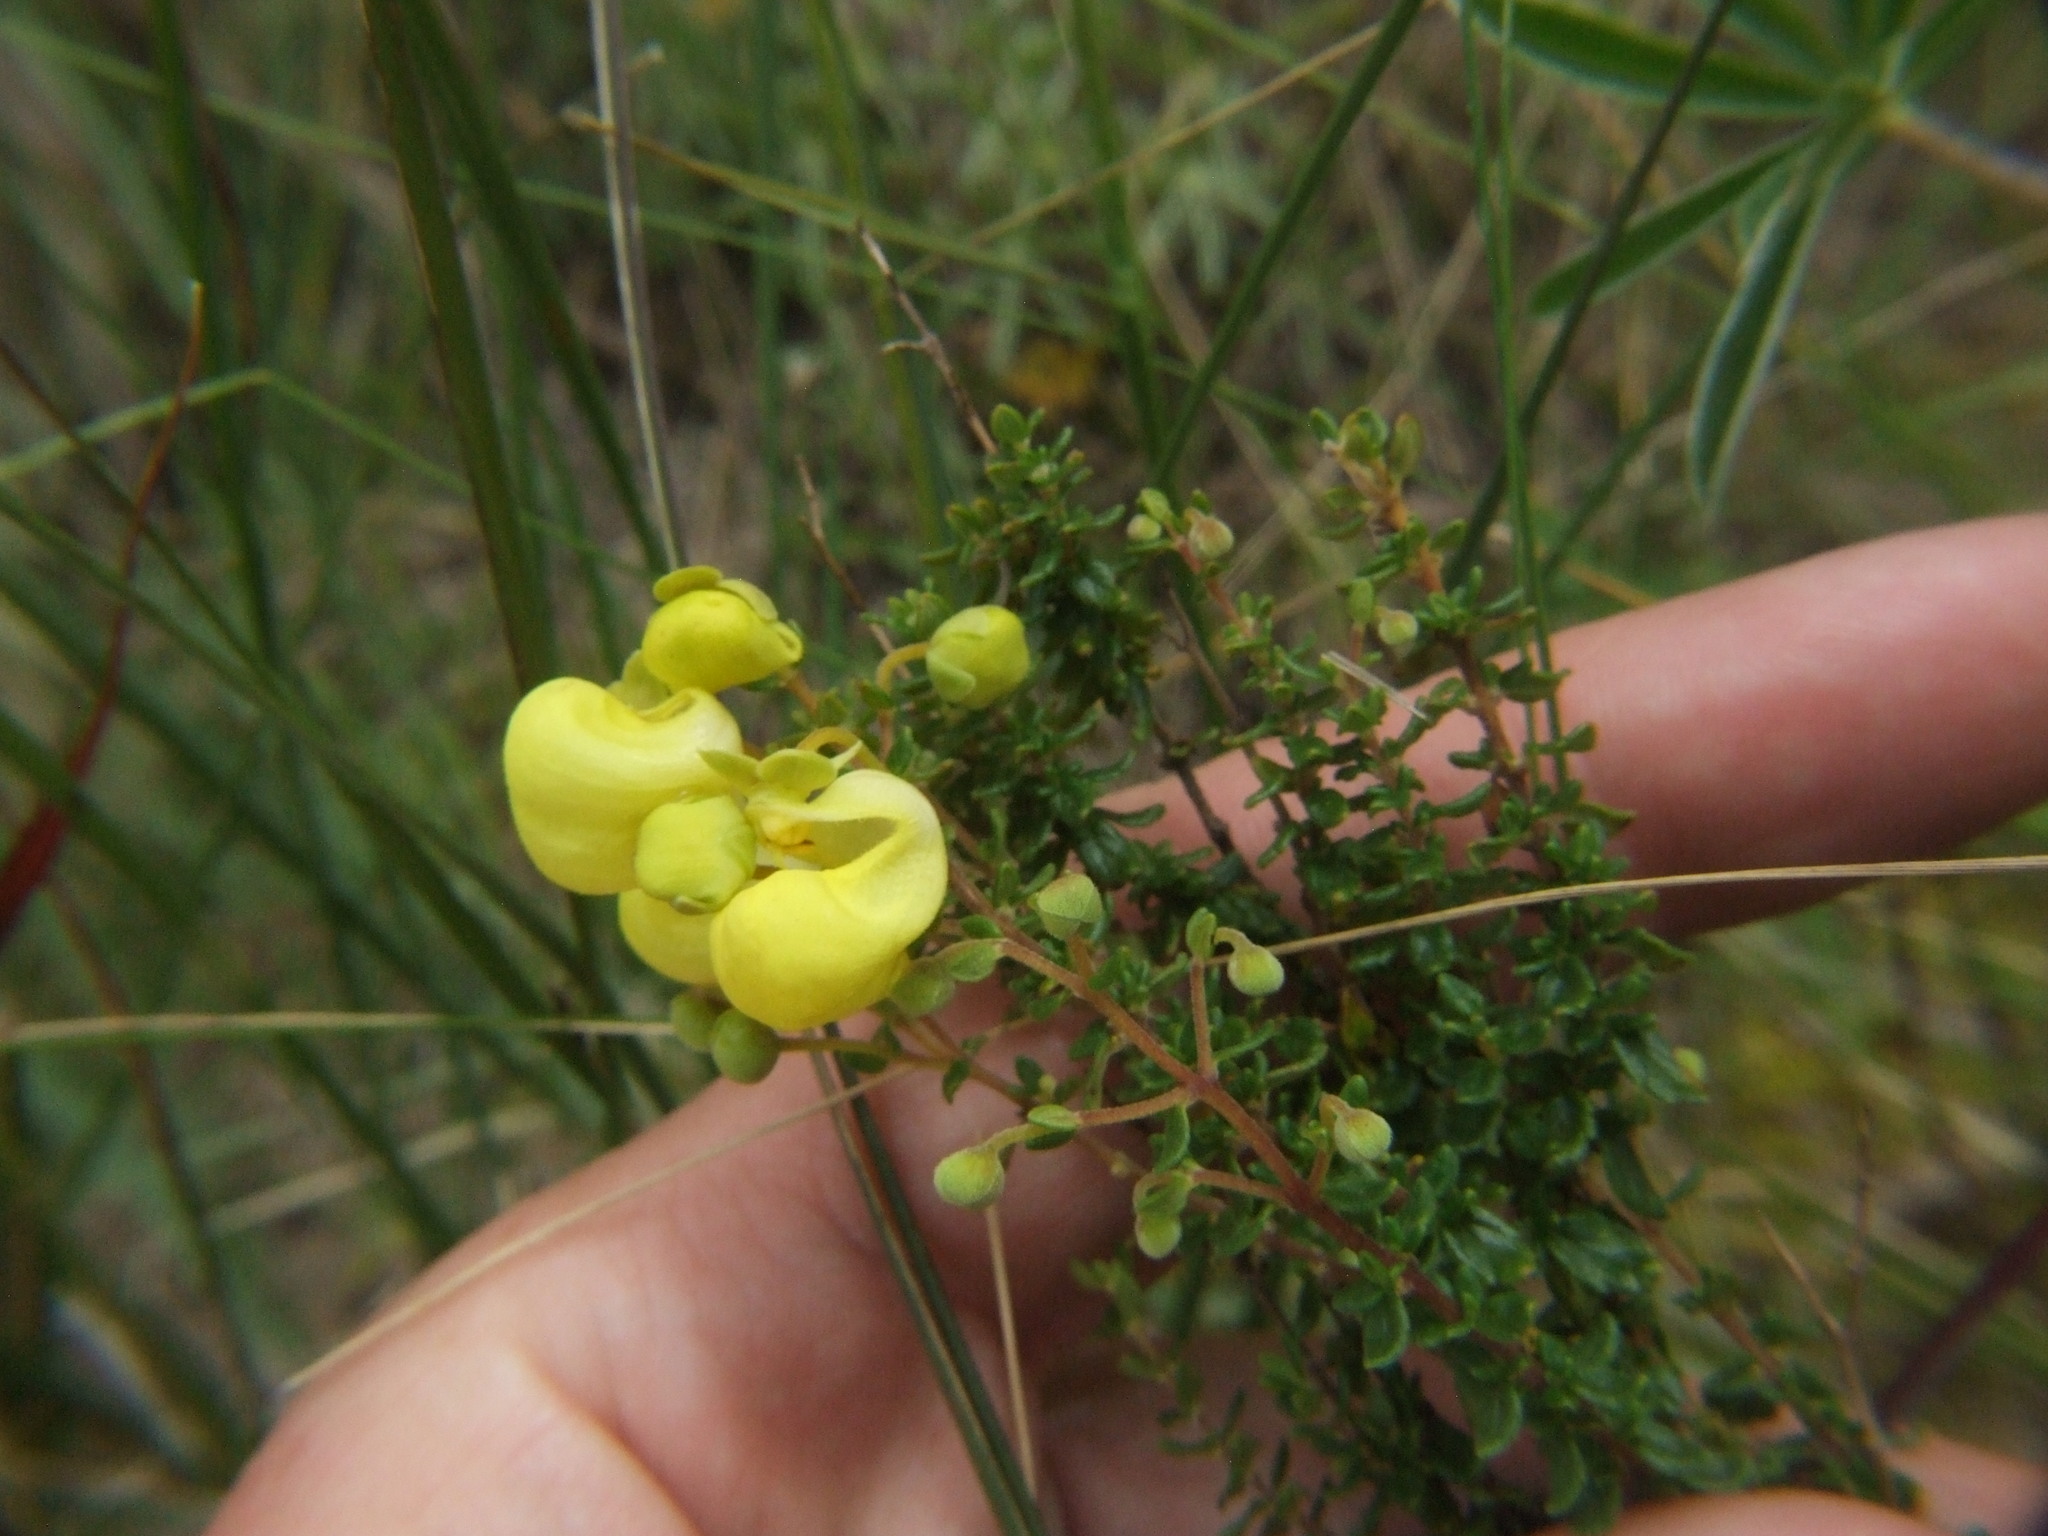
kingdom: Plantae
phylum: Tracheophyta
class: Magnoliopsida
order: Lamiales
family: Calceolariaceae
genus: Calceolaria
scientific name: Calceolaria myriophylla
